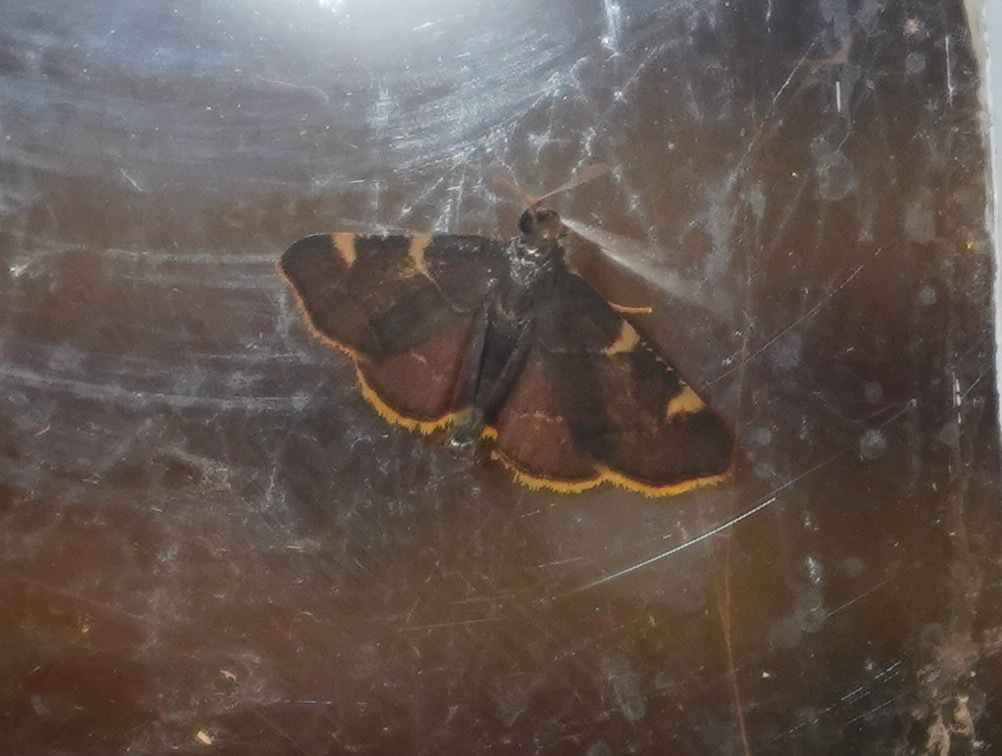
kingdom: Animalia
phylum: Arthropoda
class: Insecta
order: Lepidoptera
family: Pyralidae
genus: Hypsopygia
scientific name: Hypsopygia olinalis
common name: Yellow-fringed dolichomia moth
